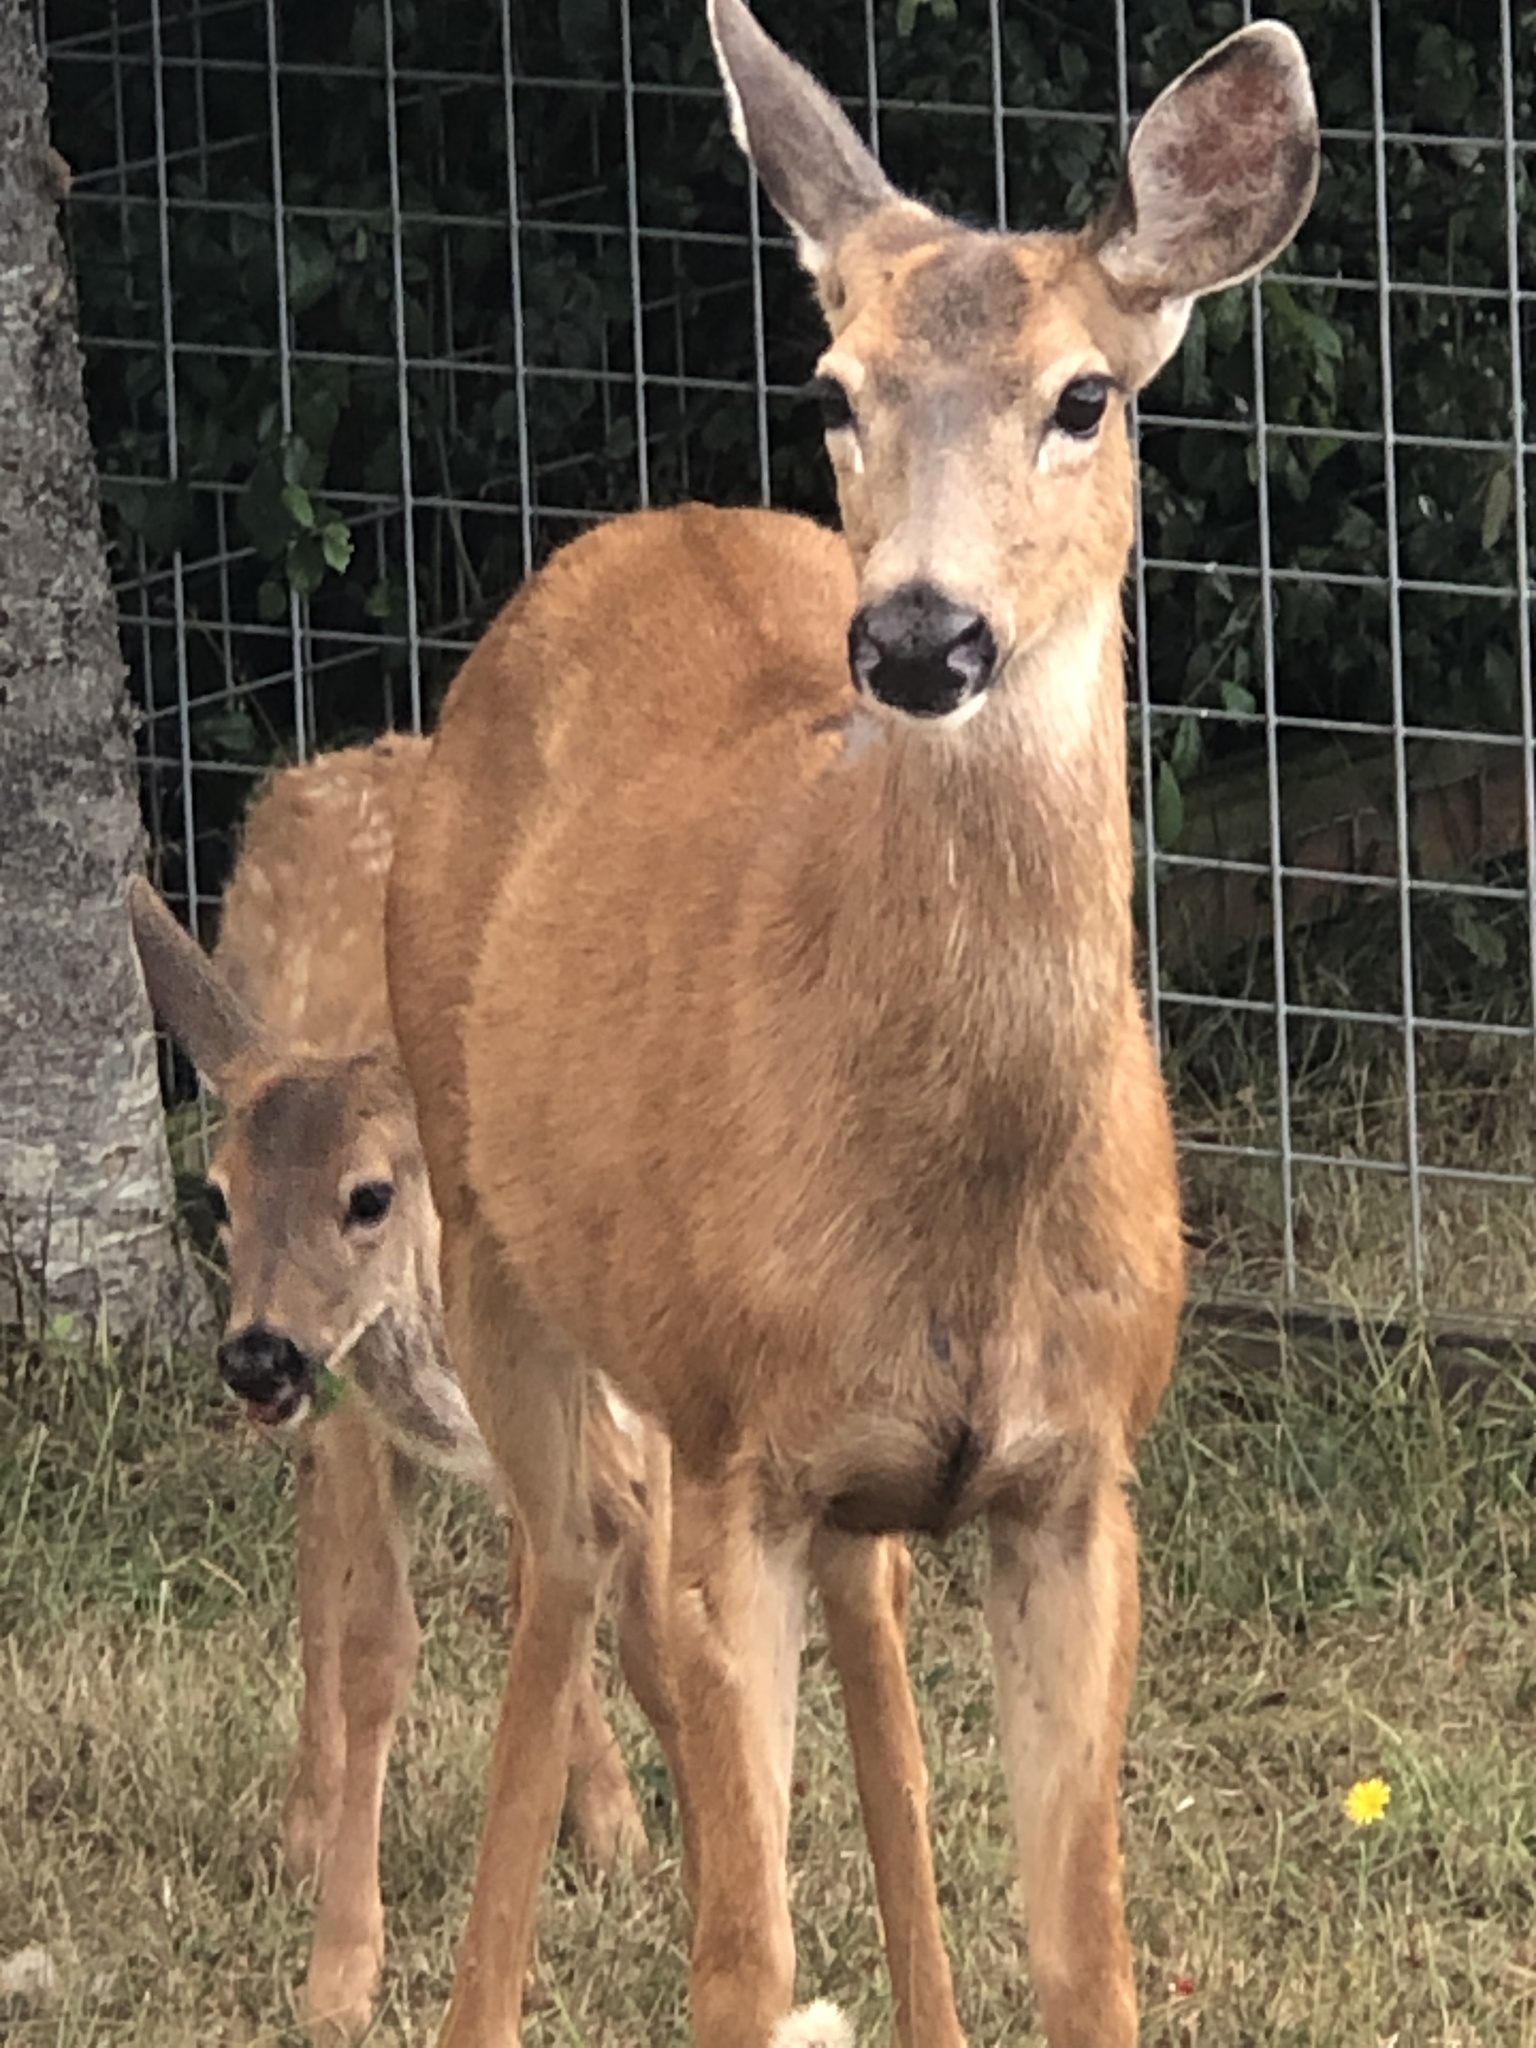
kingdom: Animalia
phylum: Chordata
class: Mammalia
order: Artiodactyla
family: Cervidae
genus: Odocoileus
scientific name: Odocoileus hemionus
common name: Mule deer
